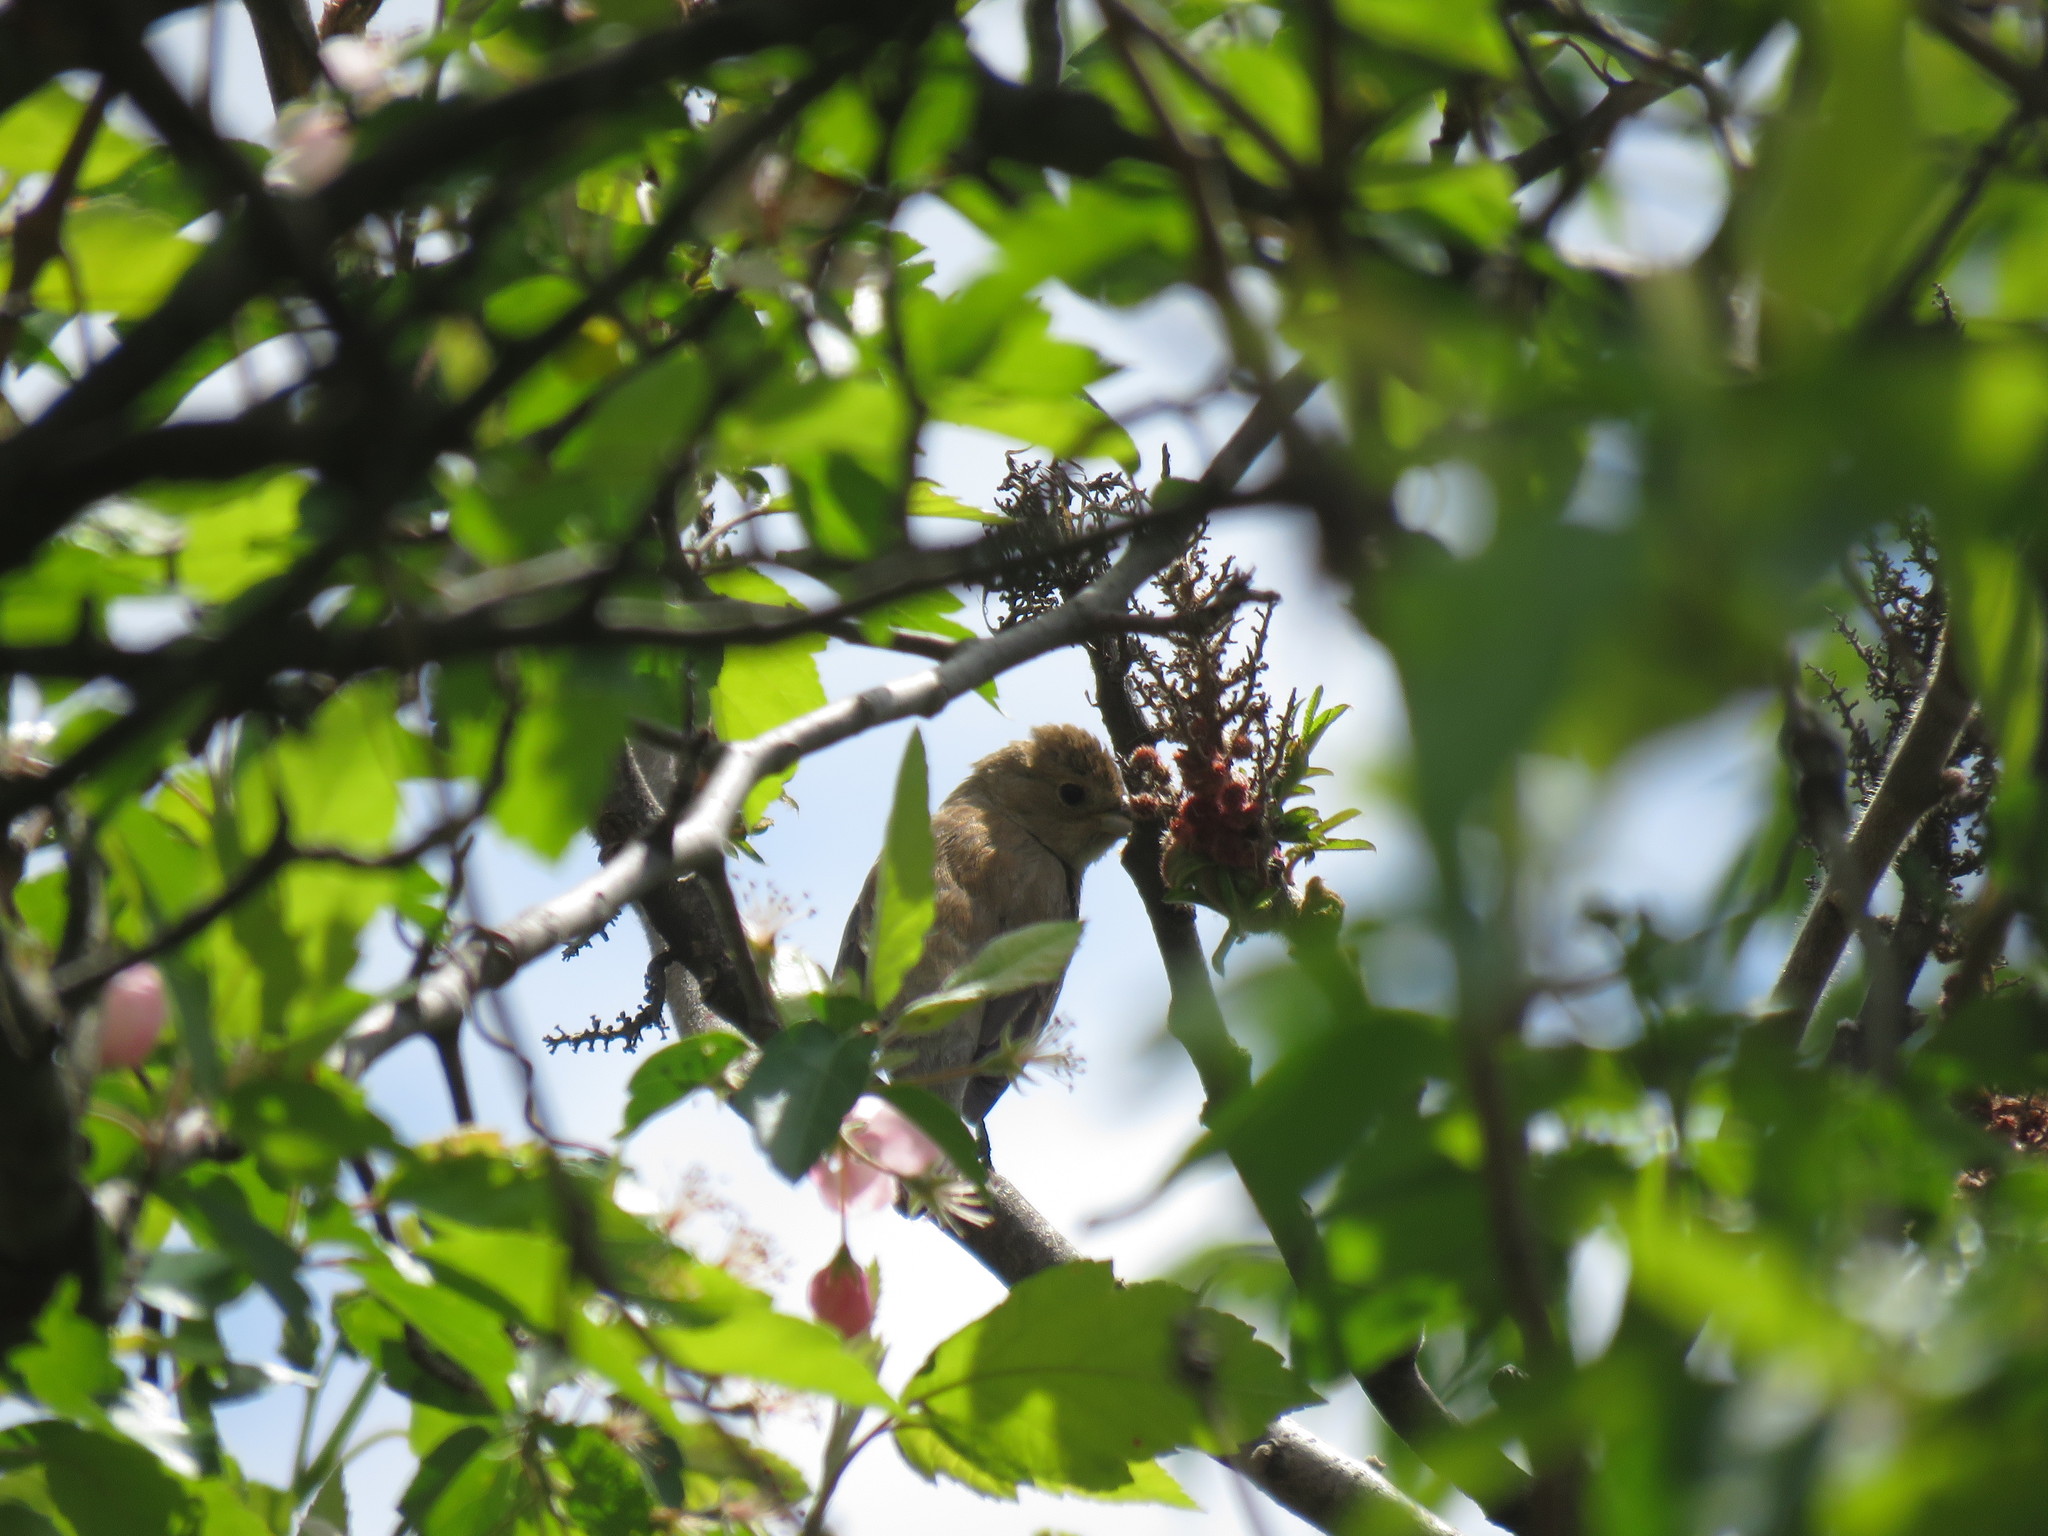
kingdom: Animalia
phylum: Chordata
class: Aves
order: Passeriformes
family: Cardinalidae
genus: Passerina
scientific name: Passerina cyanea
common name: Indigo bunting
